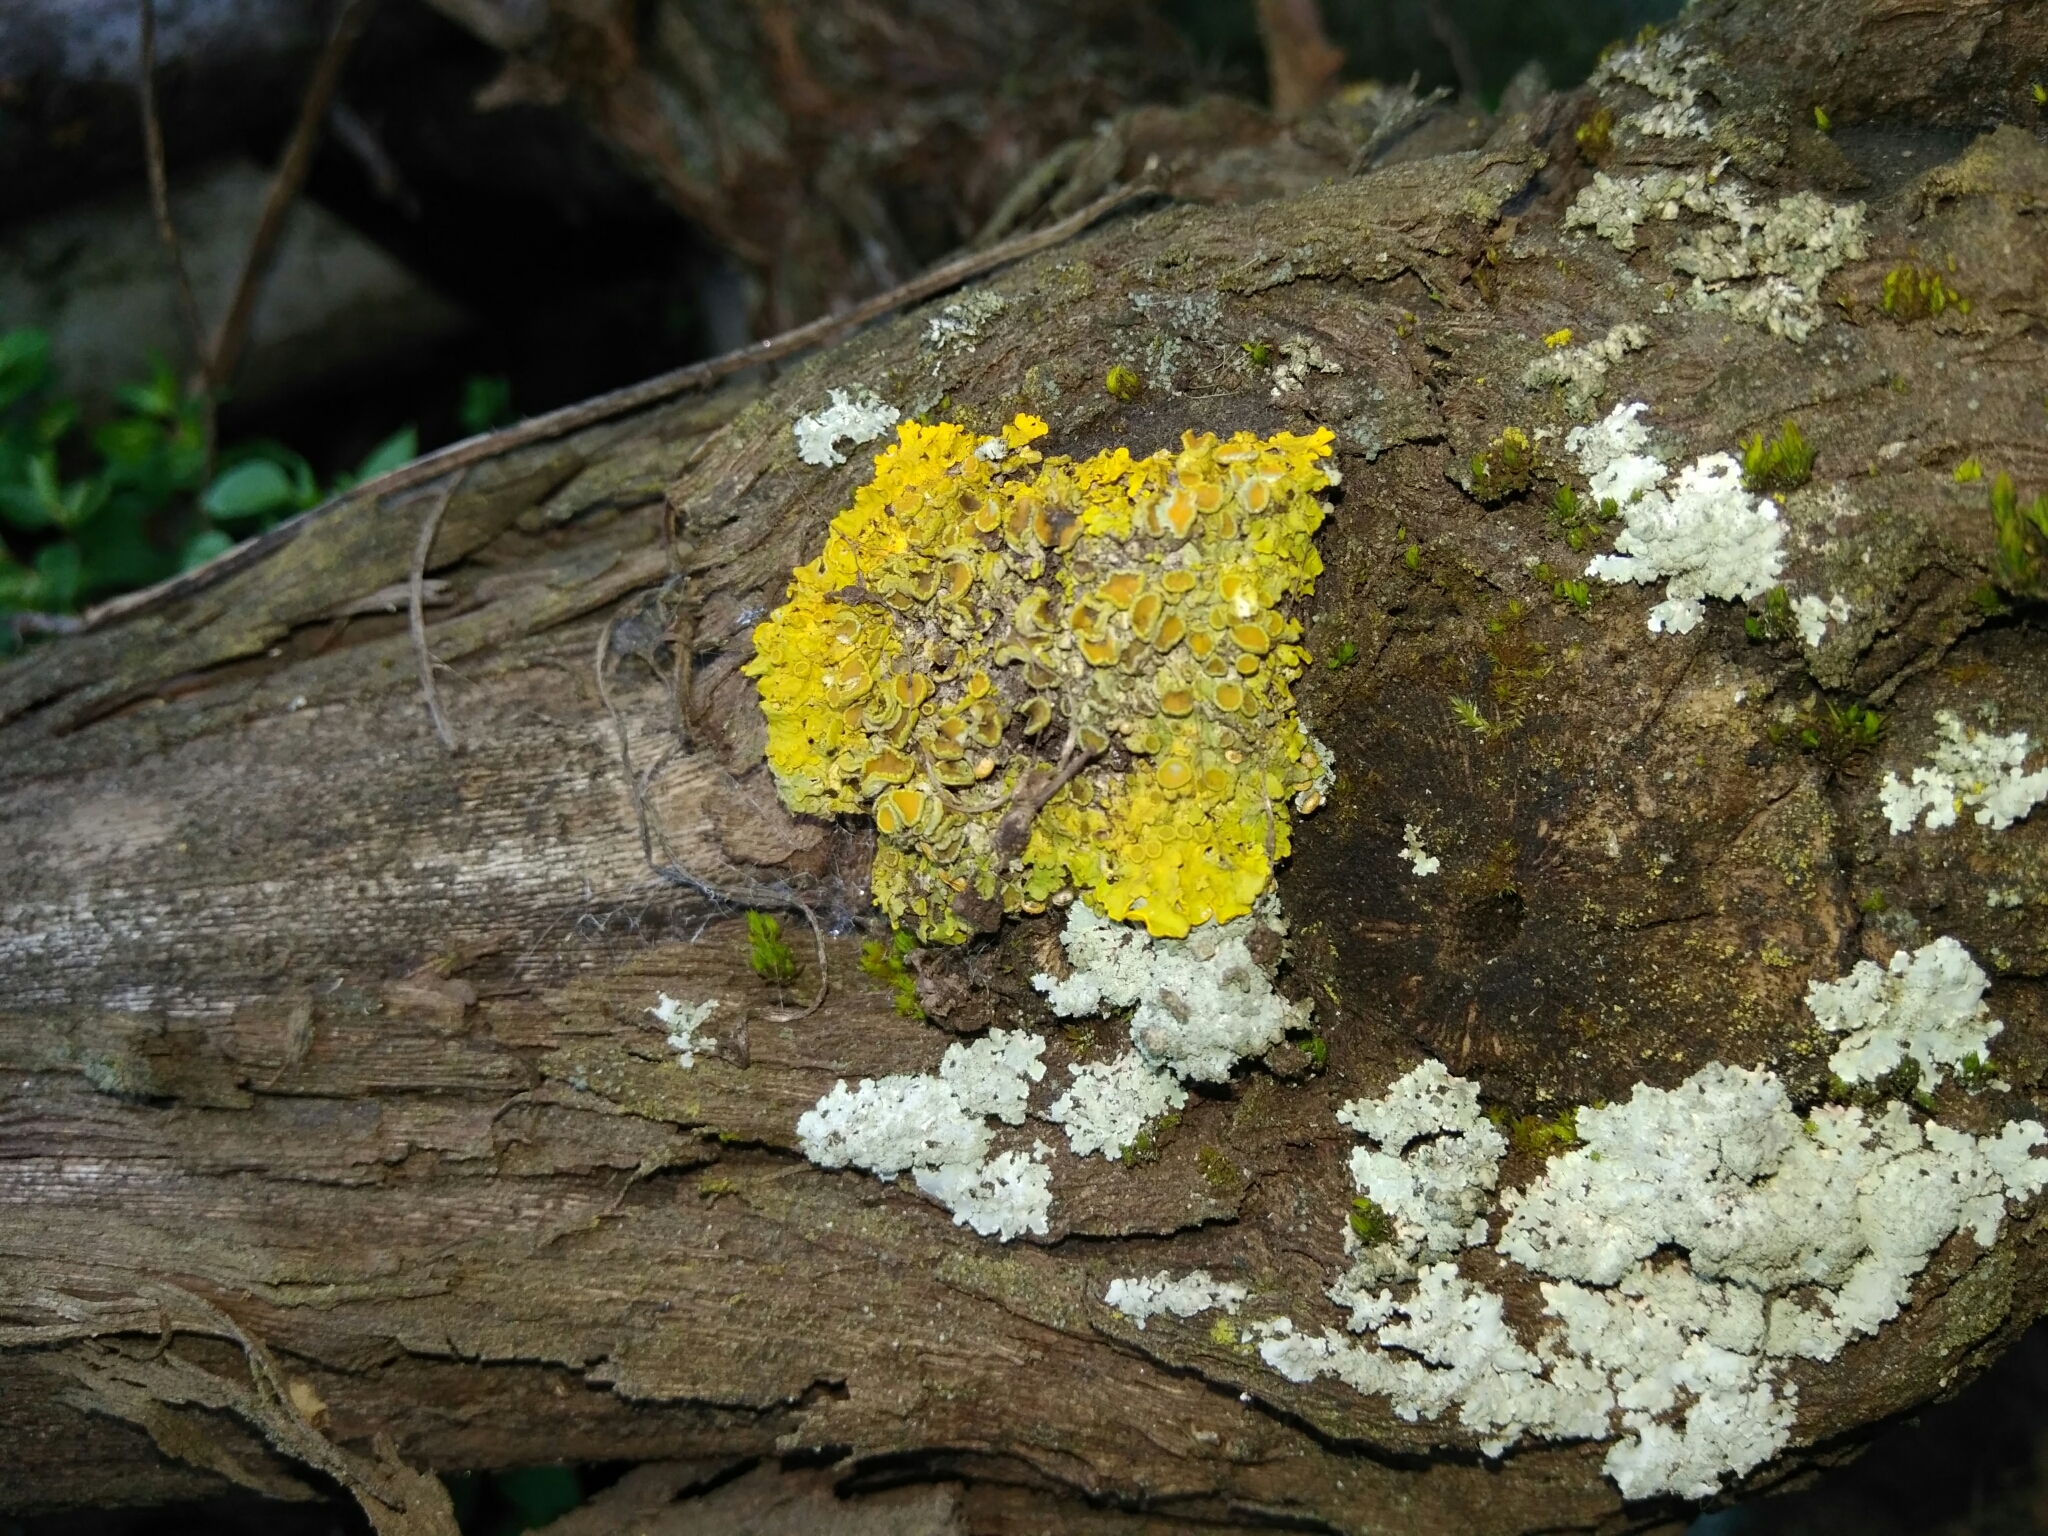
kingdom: Fungi
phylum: Ascomycota
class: Lecanoromycetes
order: Teloschistales
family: Teloschistaceae
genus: Xanthoria
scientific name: Xanthoria parietina
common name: Common orange lichen
